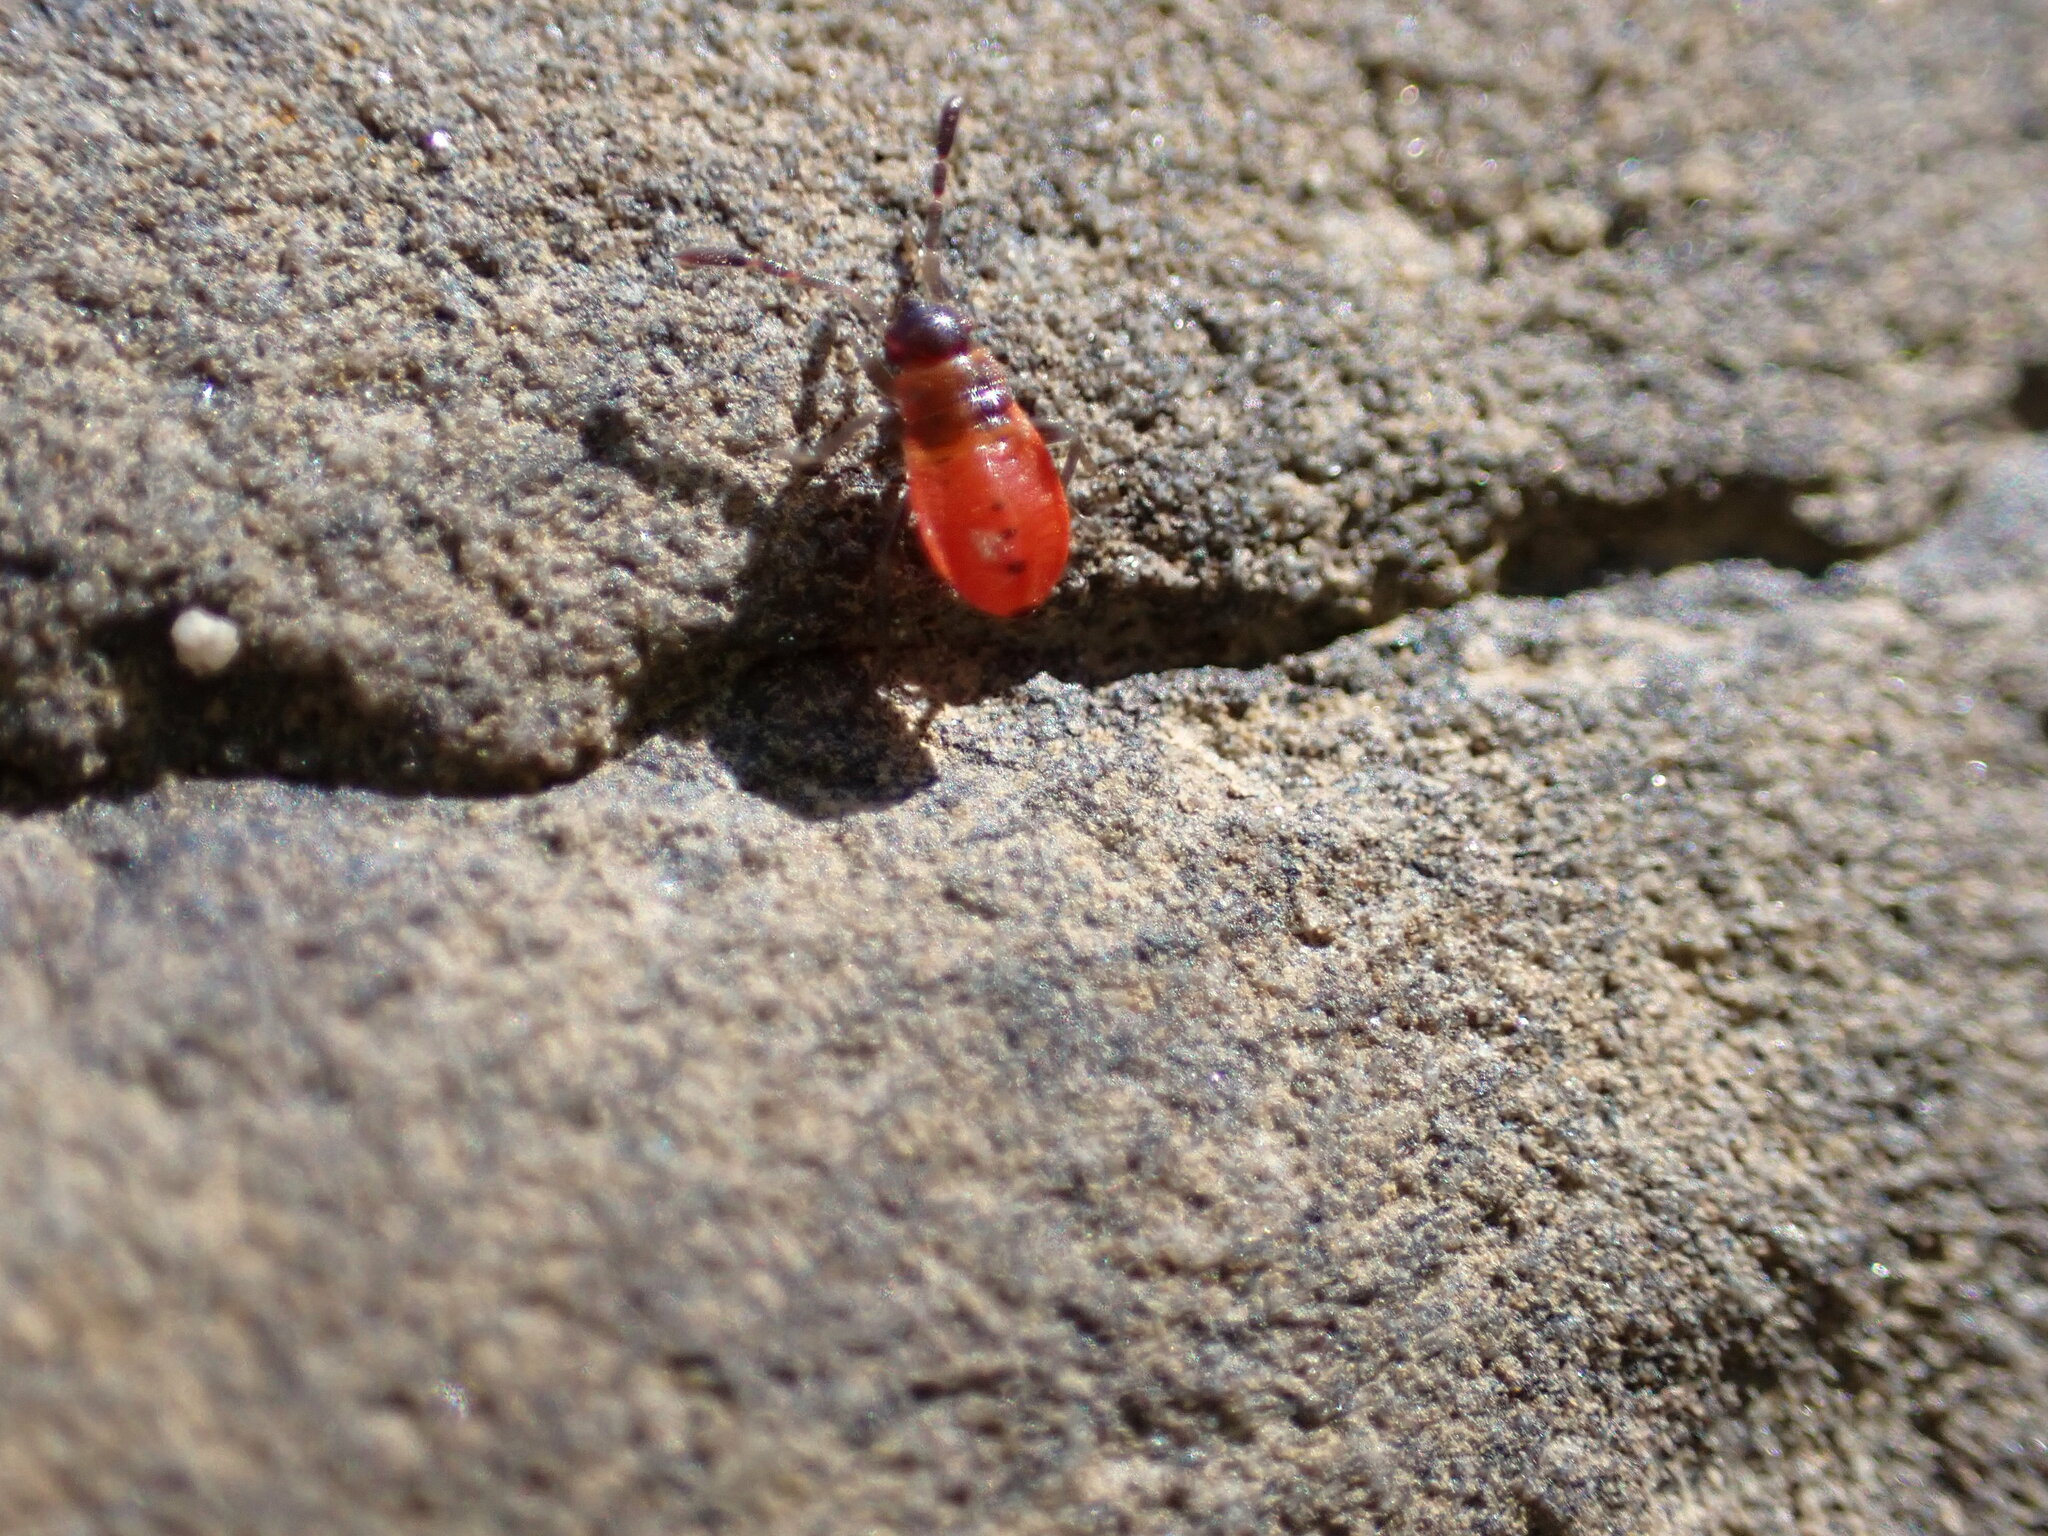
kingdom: Animalia
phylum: Arthropoda
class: Insecta
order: Hemiptera
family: Pyrrhocoridae
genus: Pyrrhocoris
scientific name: Pyrrhocoris apterus
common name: Firebug
